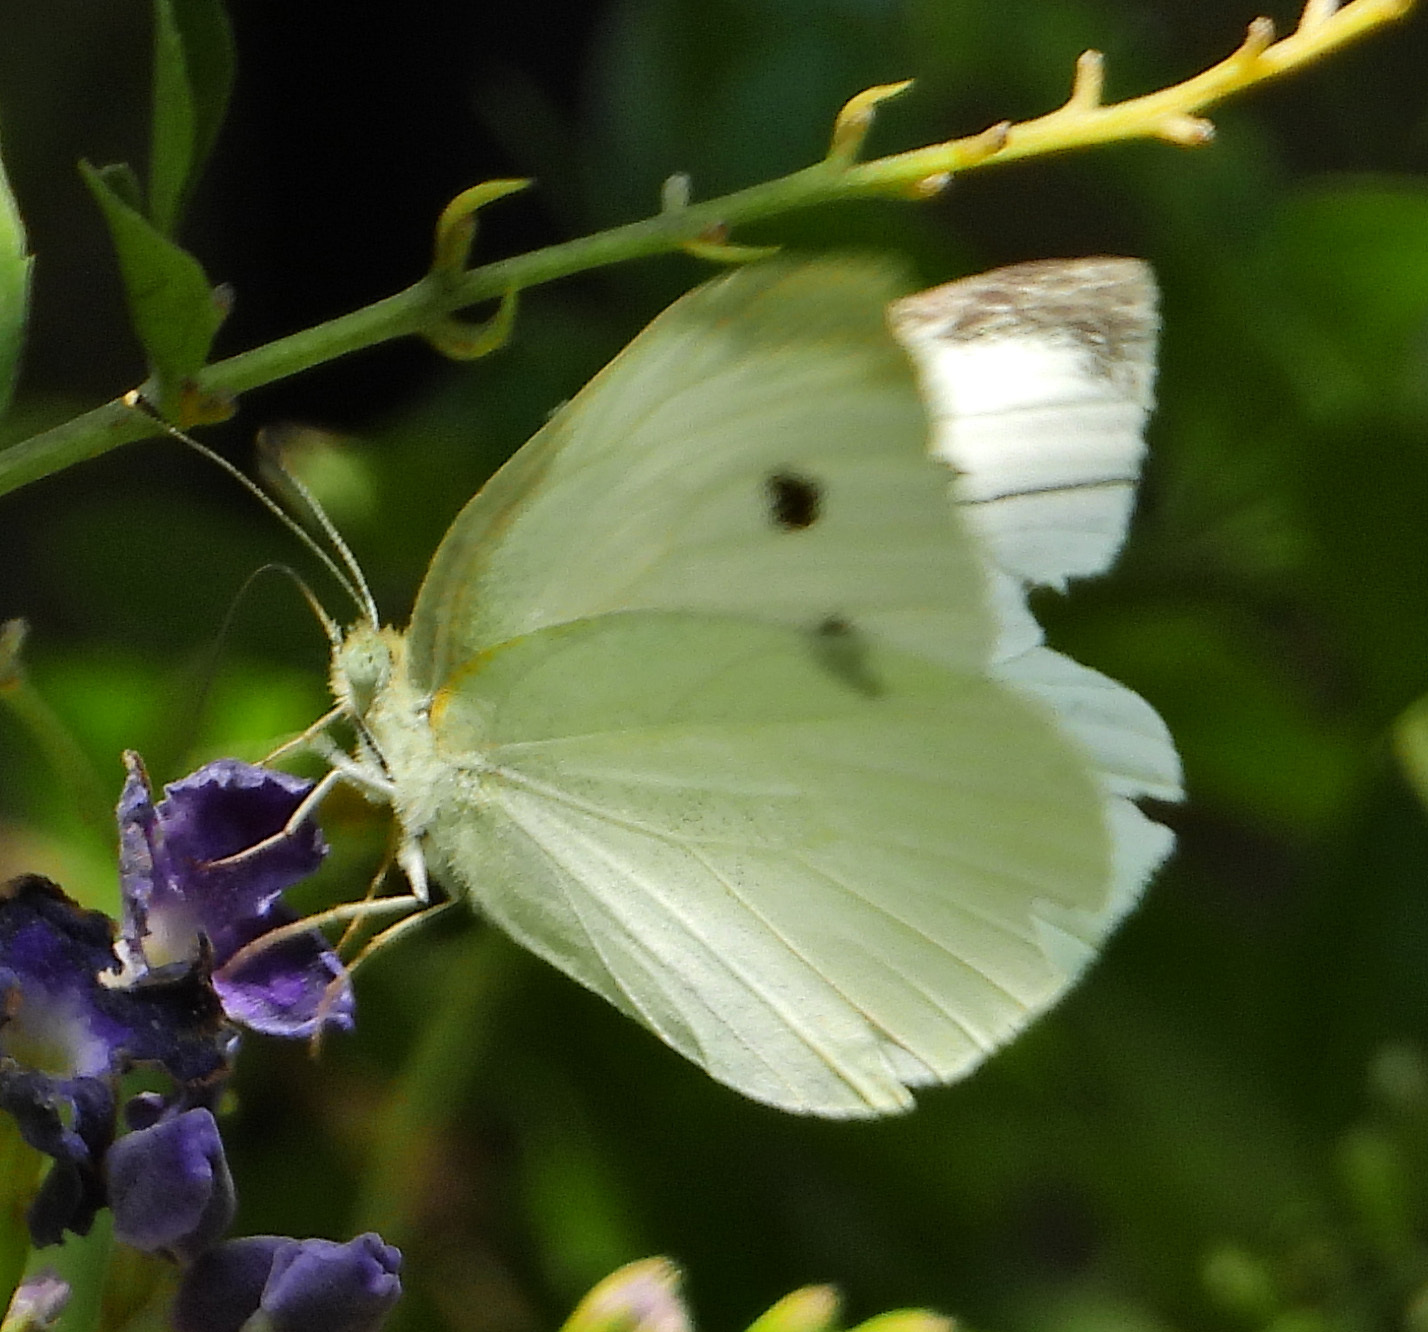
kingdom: Animalia
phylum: Arthropoda
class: Insecta
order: Lepidoptera
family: Pieridae
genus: Pieris
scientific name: Pieris rapae
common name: Small white
